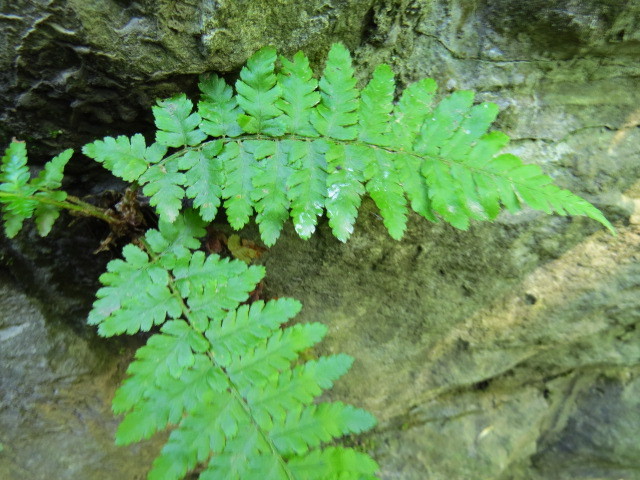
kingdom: Plantae
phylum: Tracheophyta
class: Polypodiopsida
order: Polypodiales
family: Dryopteridaceae
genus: Dryopteris
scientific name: Dryopteris filix-mas
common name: Male fern
